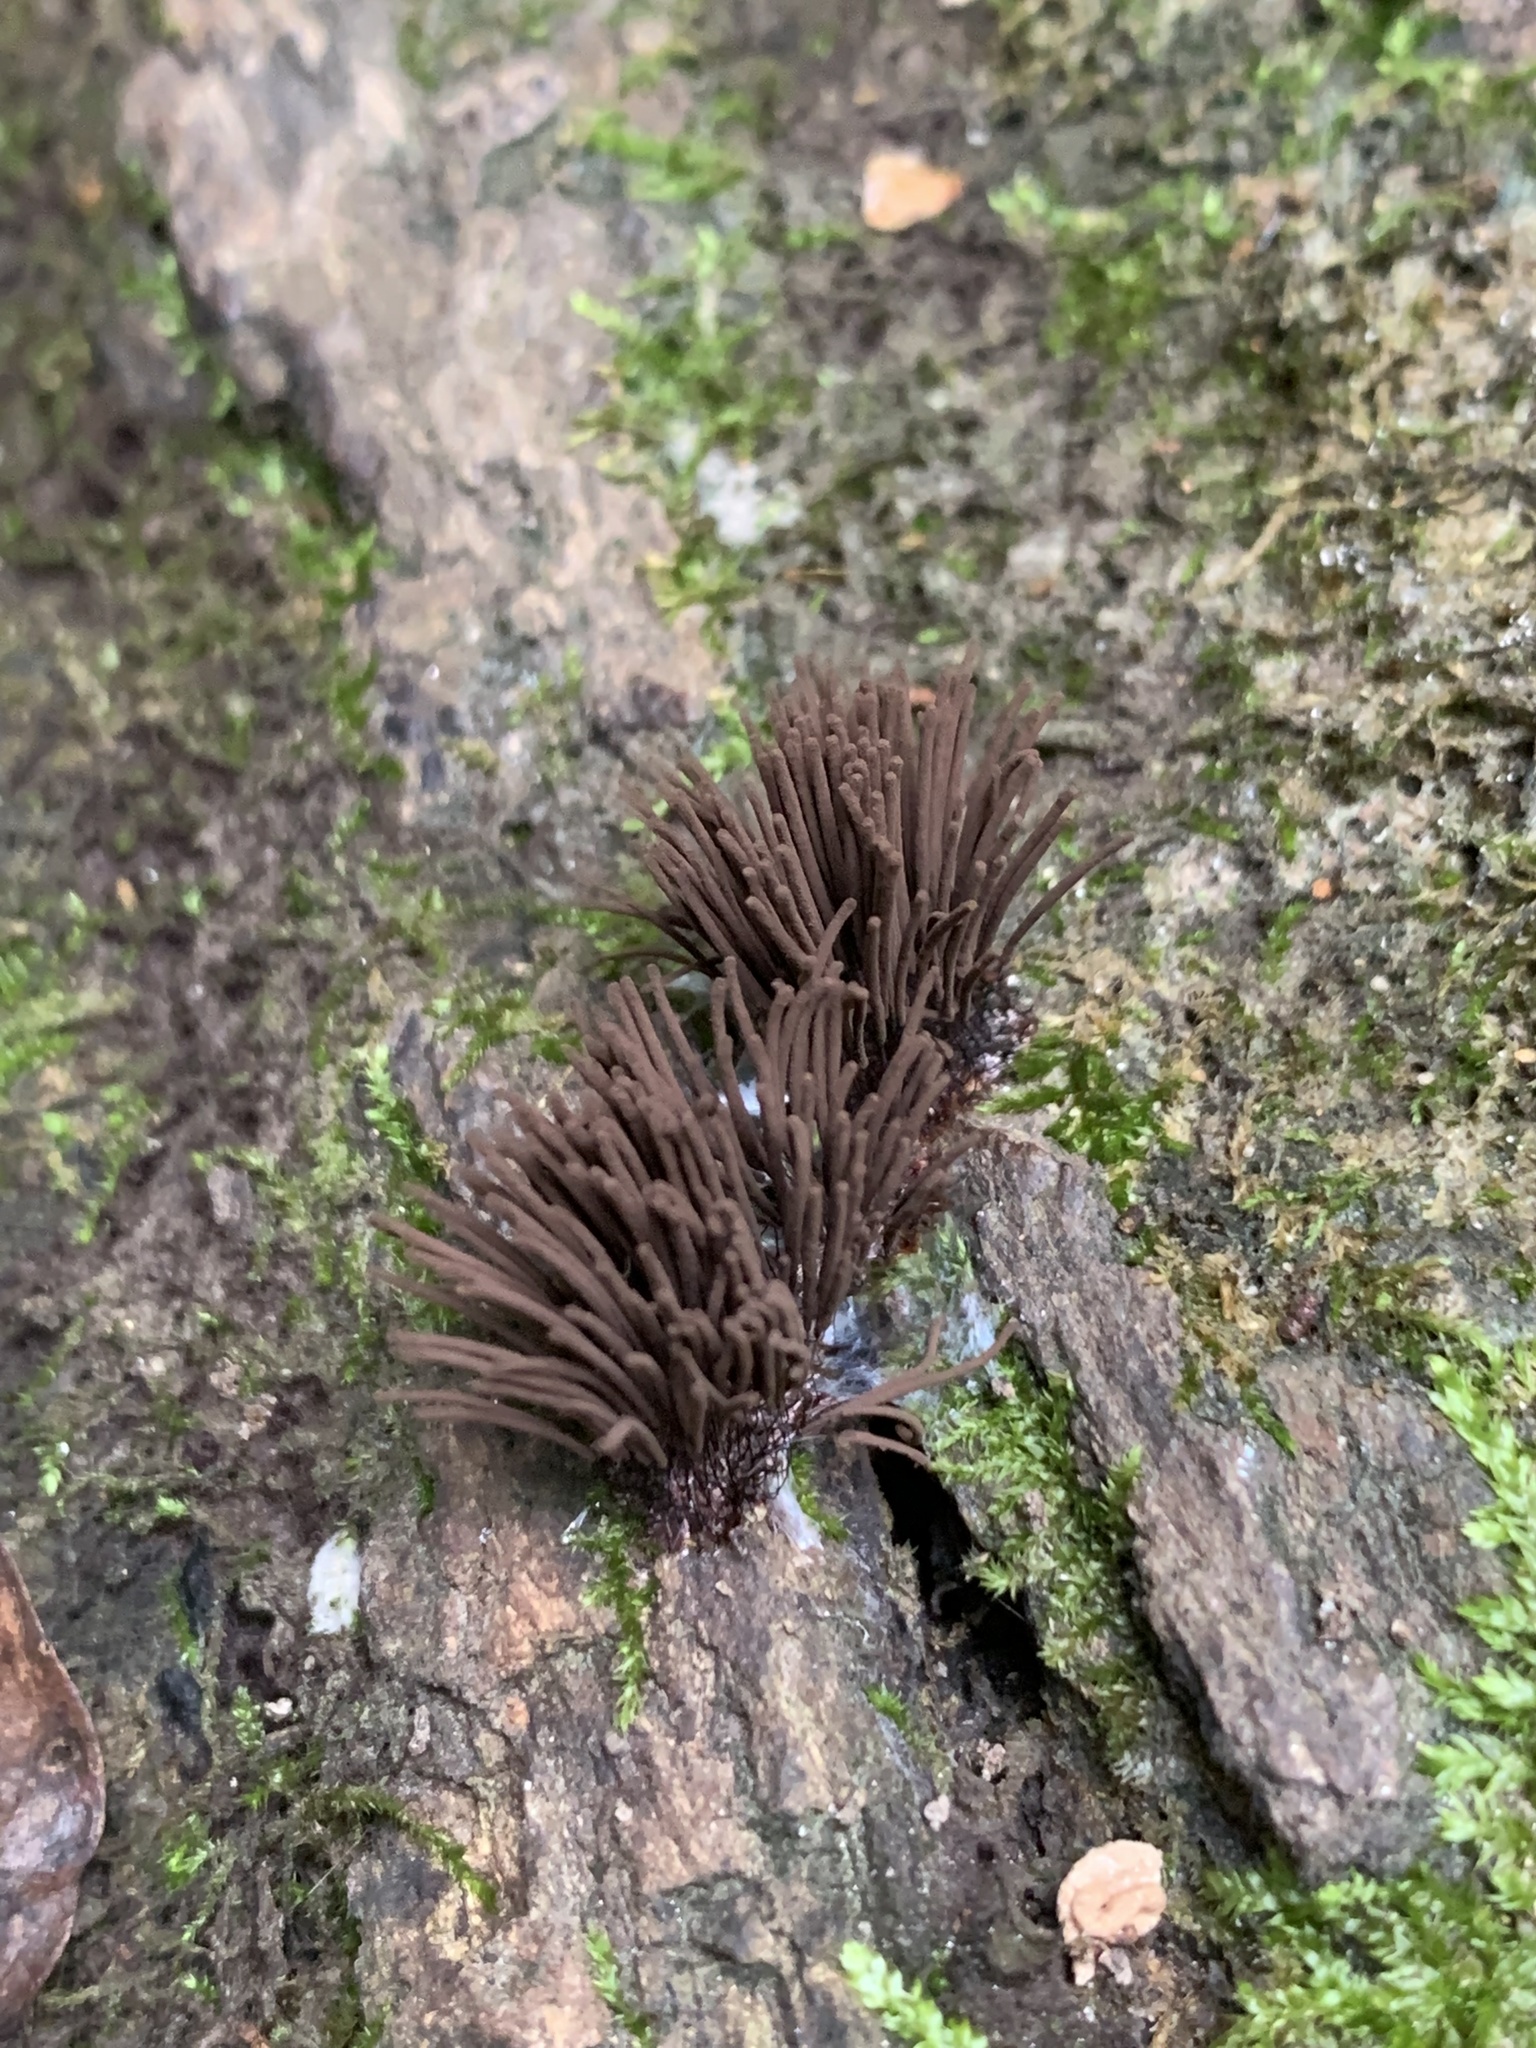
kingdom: Protozoa
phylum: Mycetozoa
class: Myxomycetes
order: Stemonitidales
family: Stemonitidaceae
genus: Stemonitis
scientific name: Stemonitis splendens
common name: Chocolate tube slime
